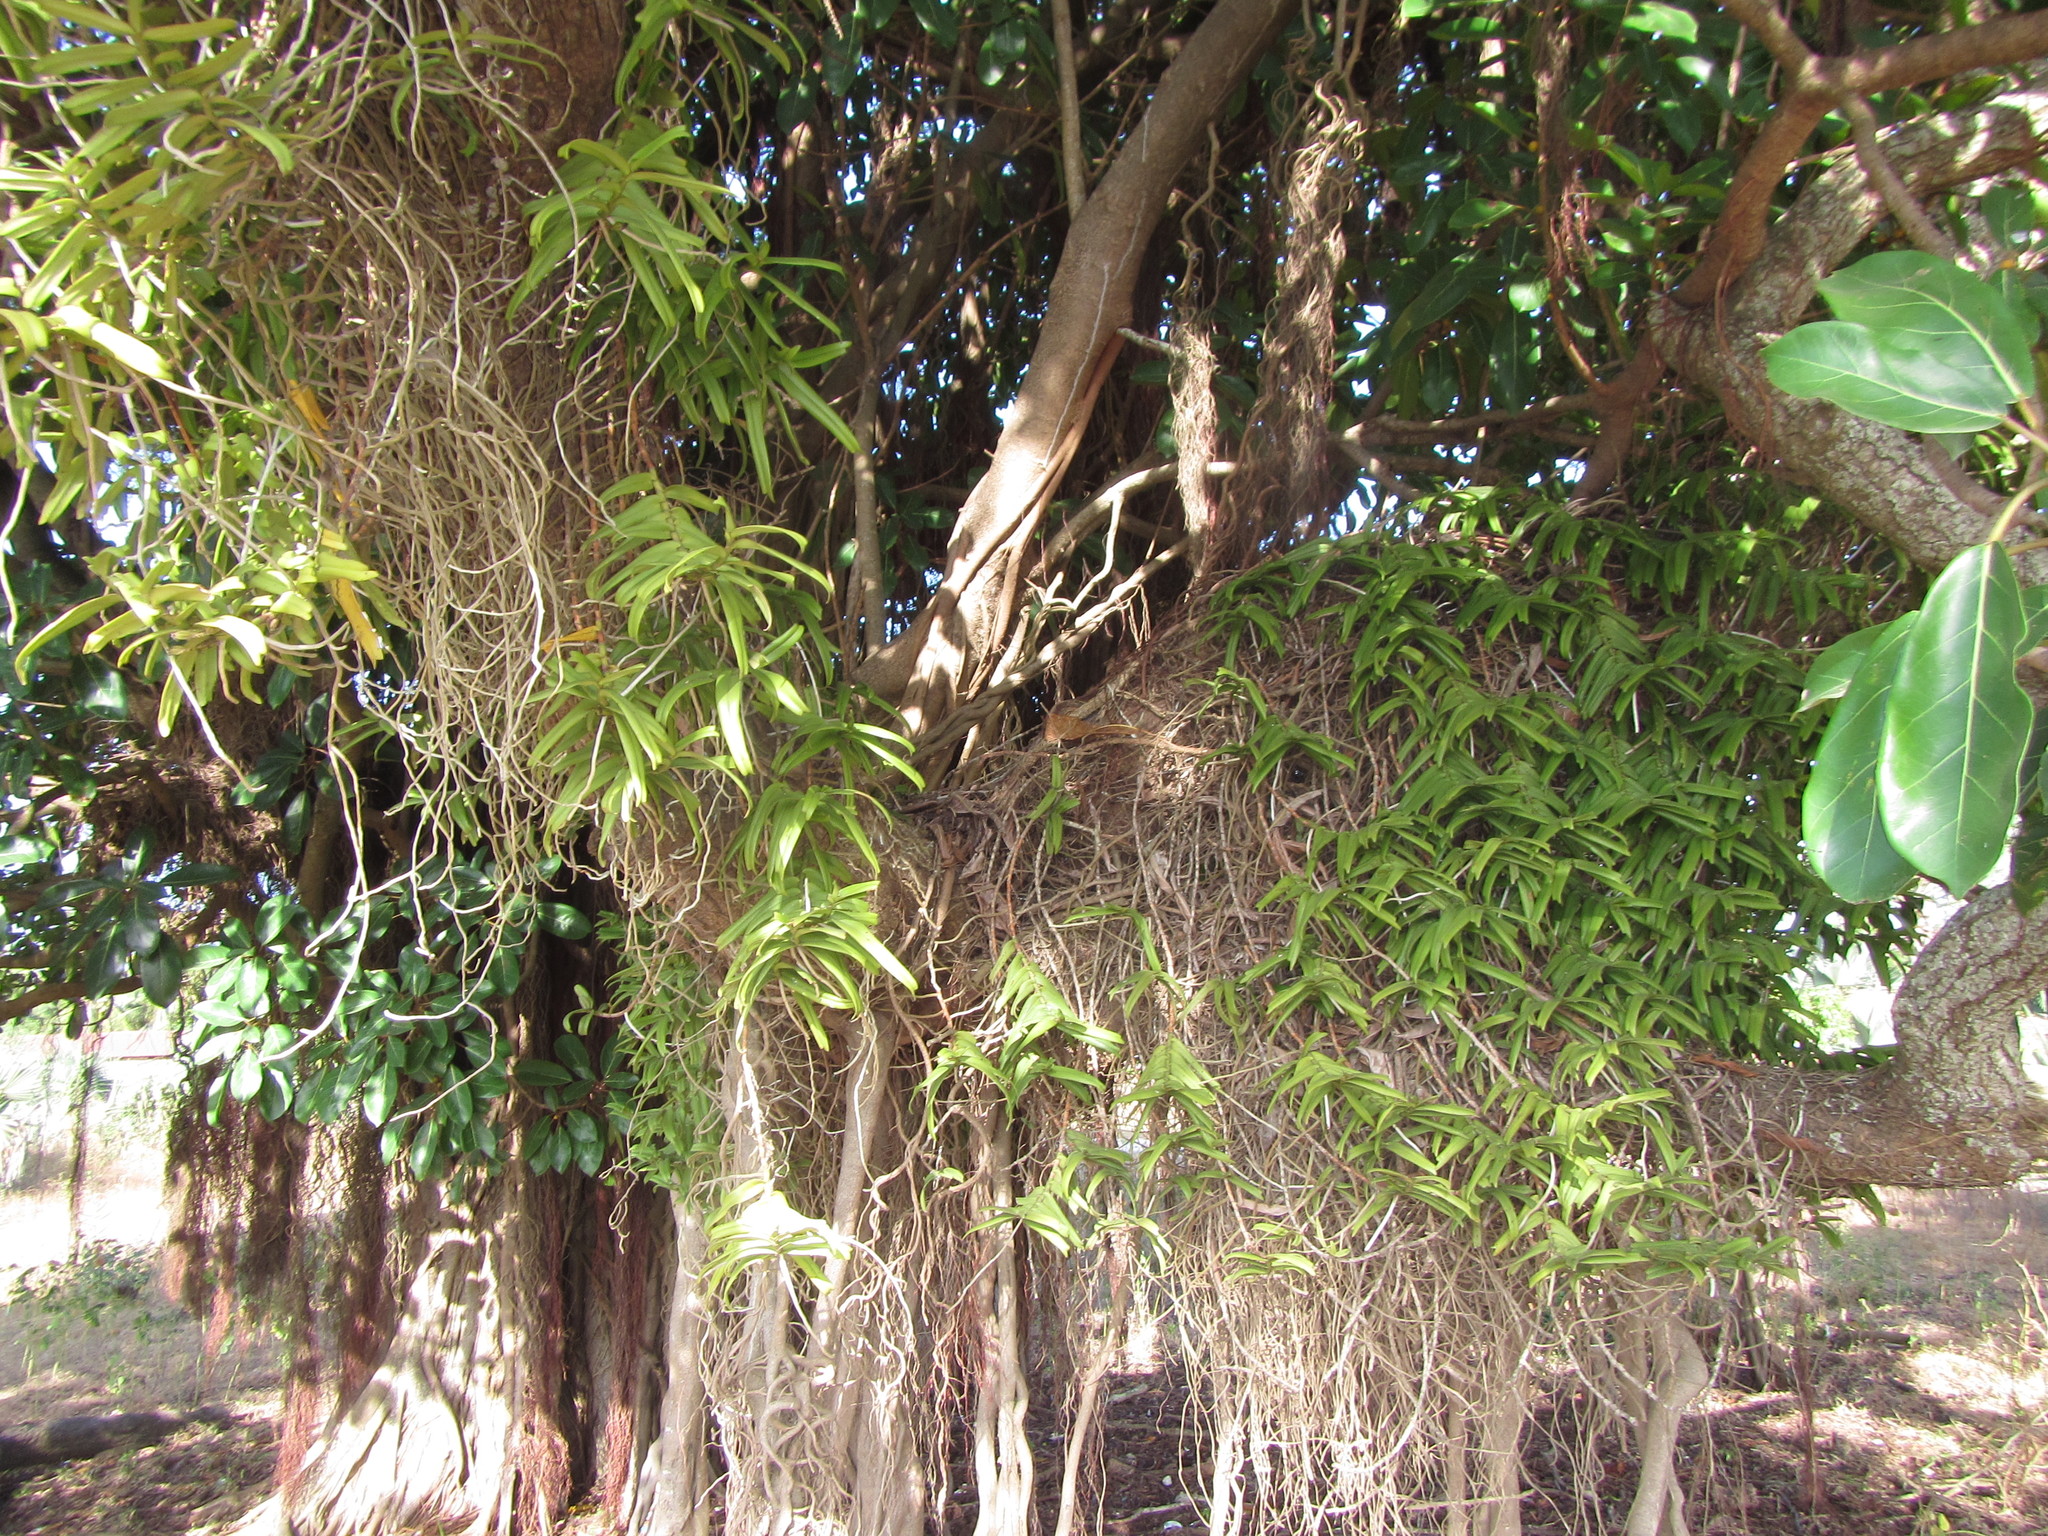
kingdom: Plantae
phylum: Tracheophyta
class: Liliopsida
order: Asparagales
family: Orchidaceae
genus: Calyptrochilum
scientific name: Calyptrochilum christyanum
